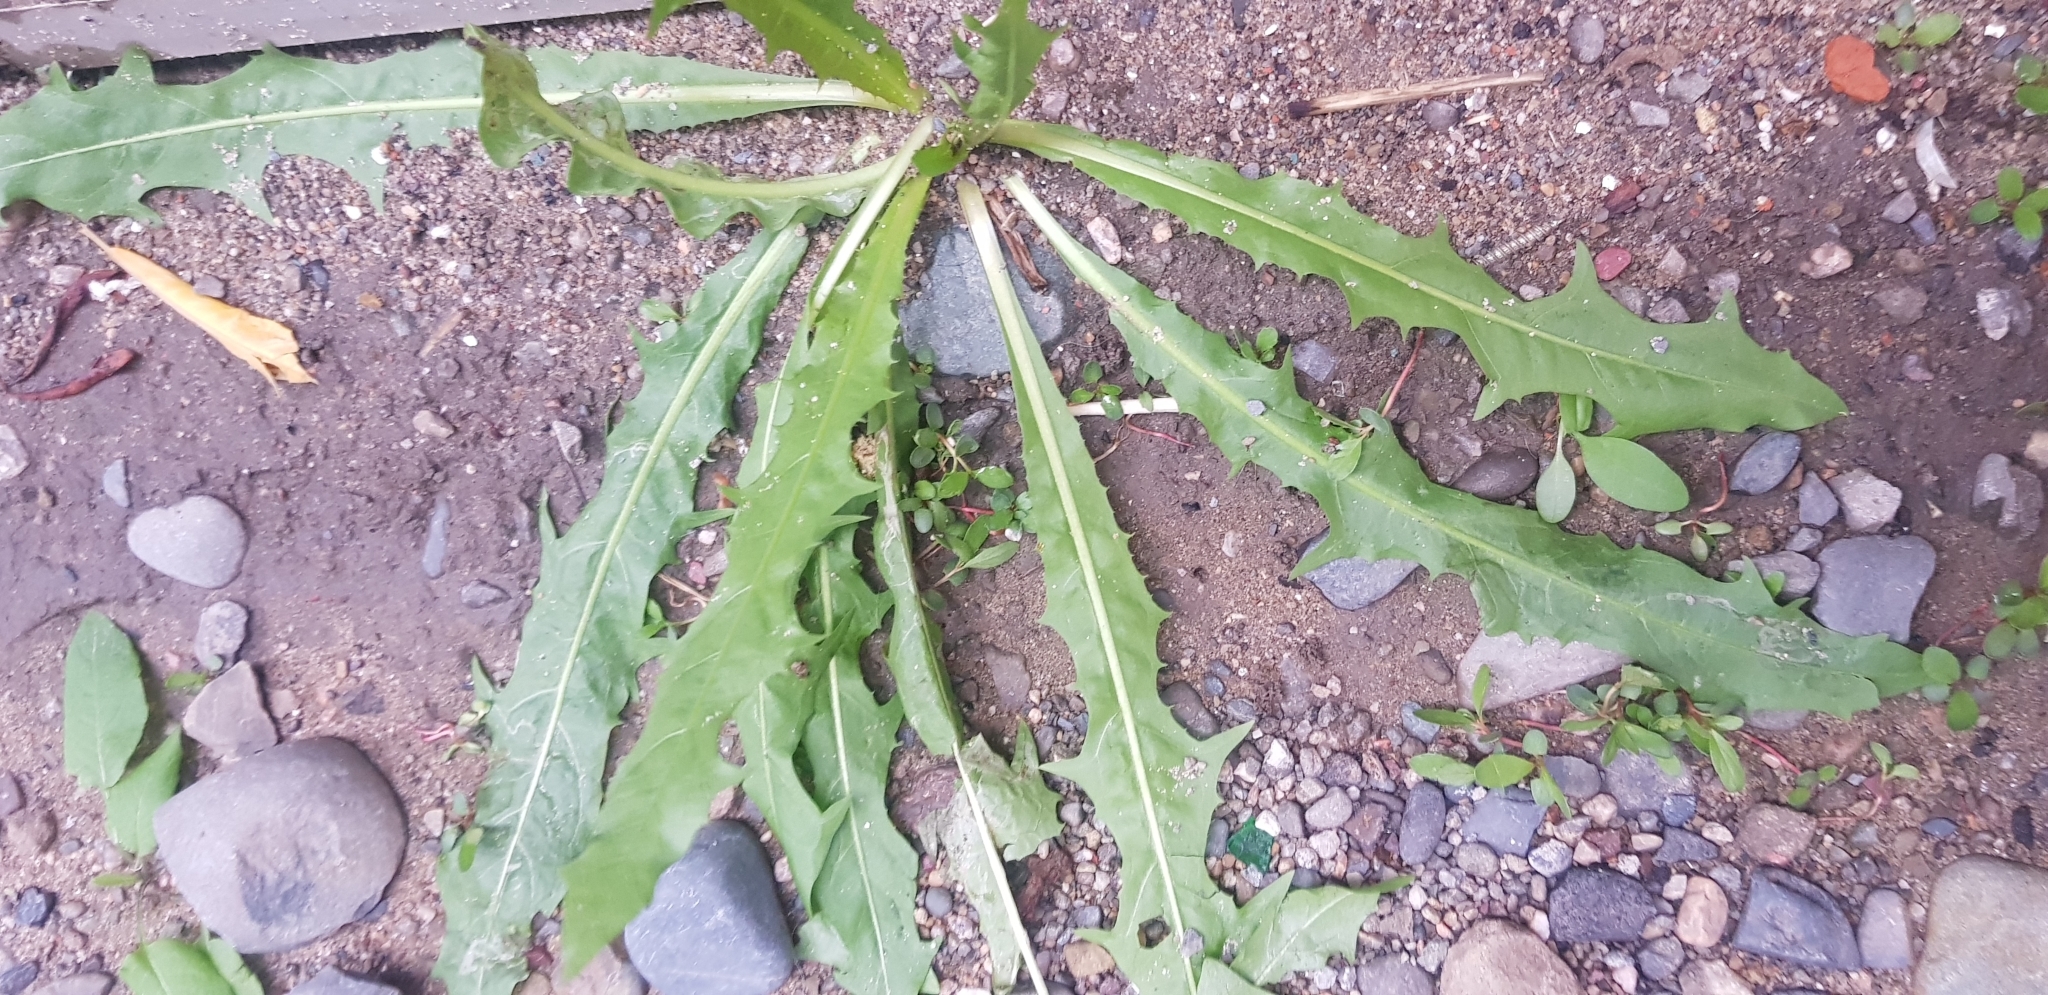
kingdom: Plantae
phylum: Tracheophyta
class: Magnoliopsida
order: Asterales
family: Asteraceae
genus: Taraxacum
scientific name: Taraxacum officinale
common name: Common dandelion
